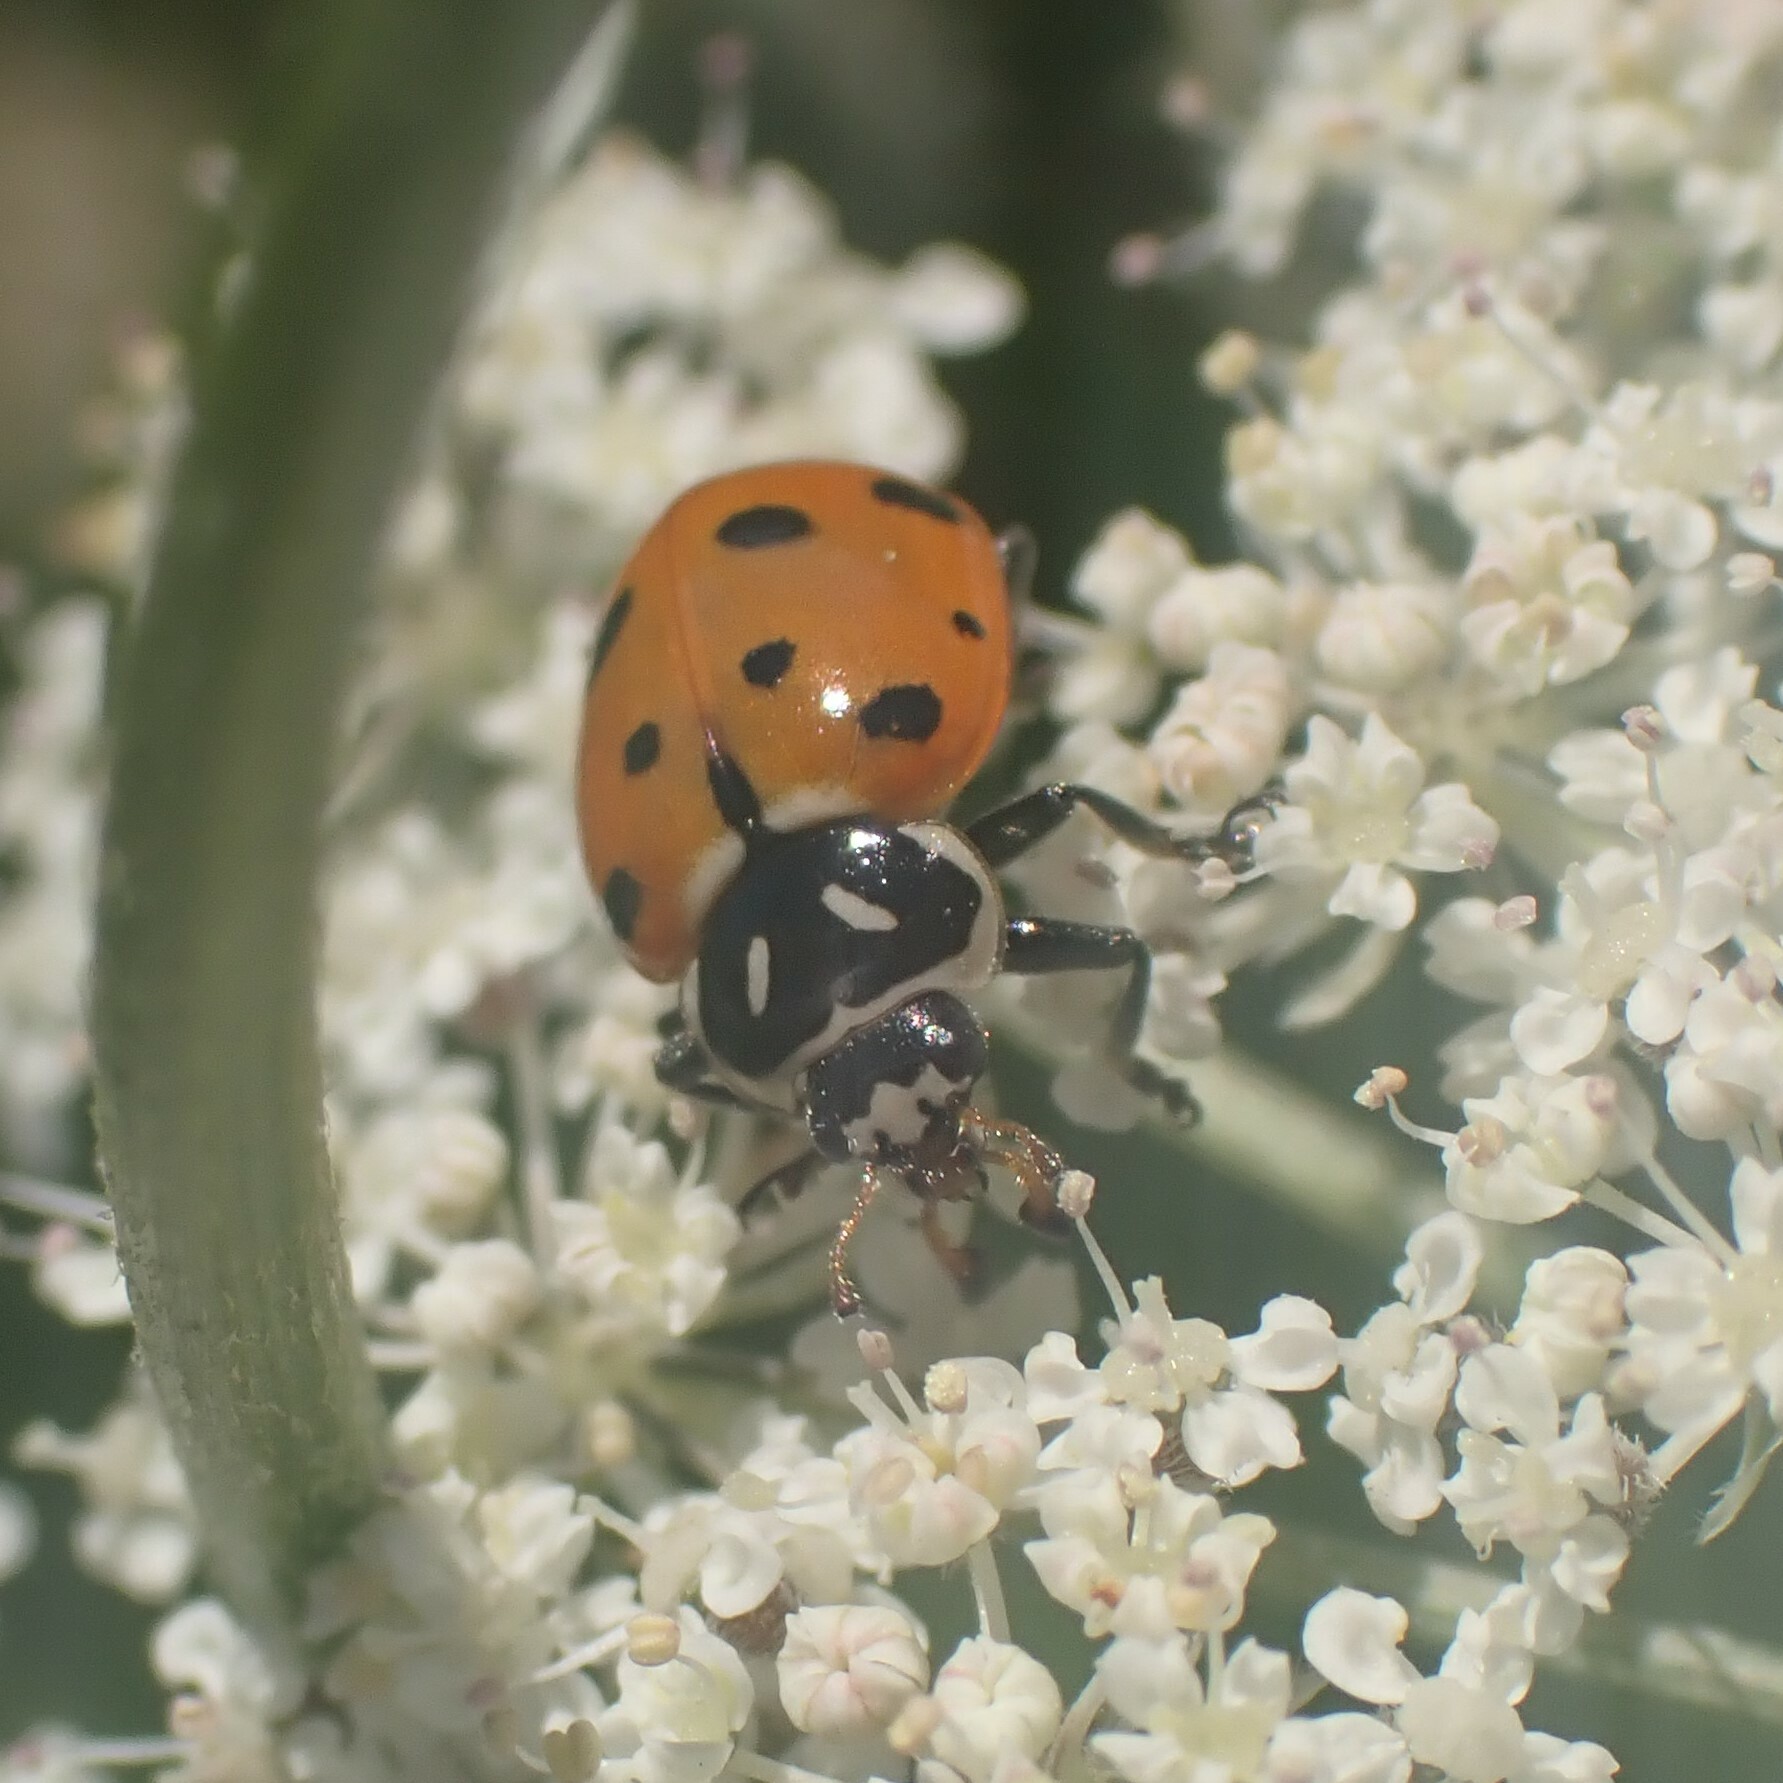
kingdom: Animalia
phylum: Arthropoda
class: Insecta
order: Coleoptera
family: Coccinellidae
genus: Hippodamia
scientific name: Hippodamia convergens
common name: Convergent lady beetle
